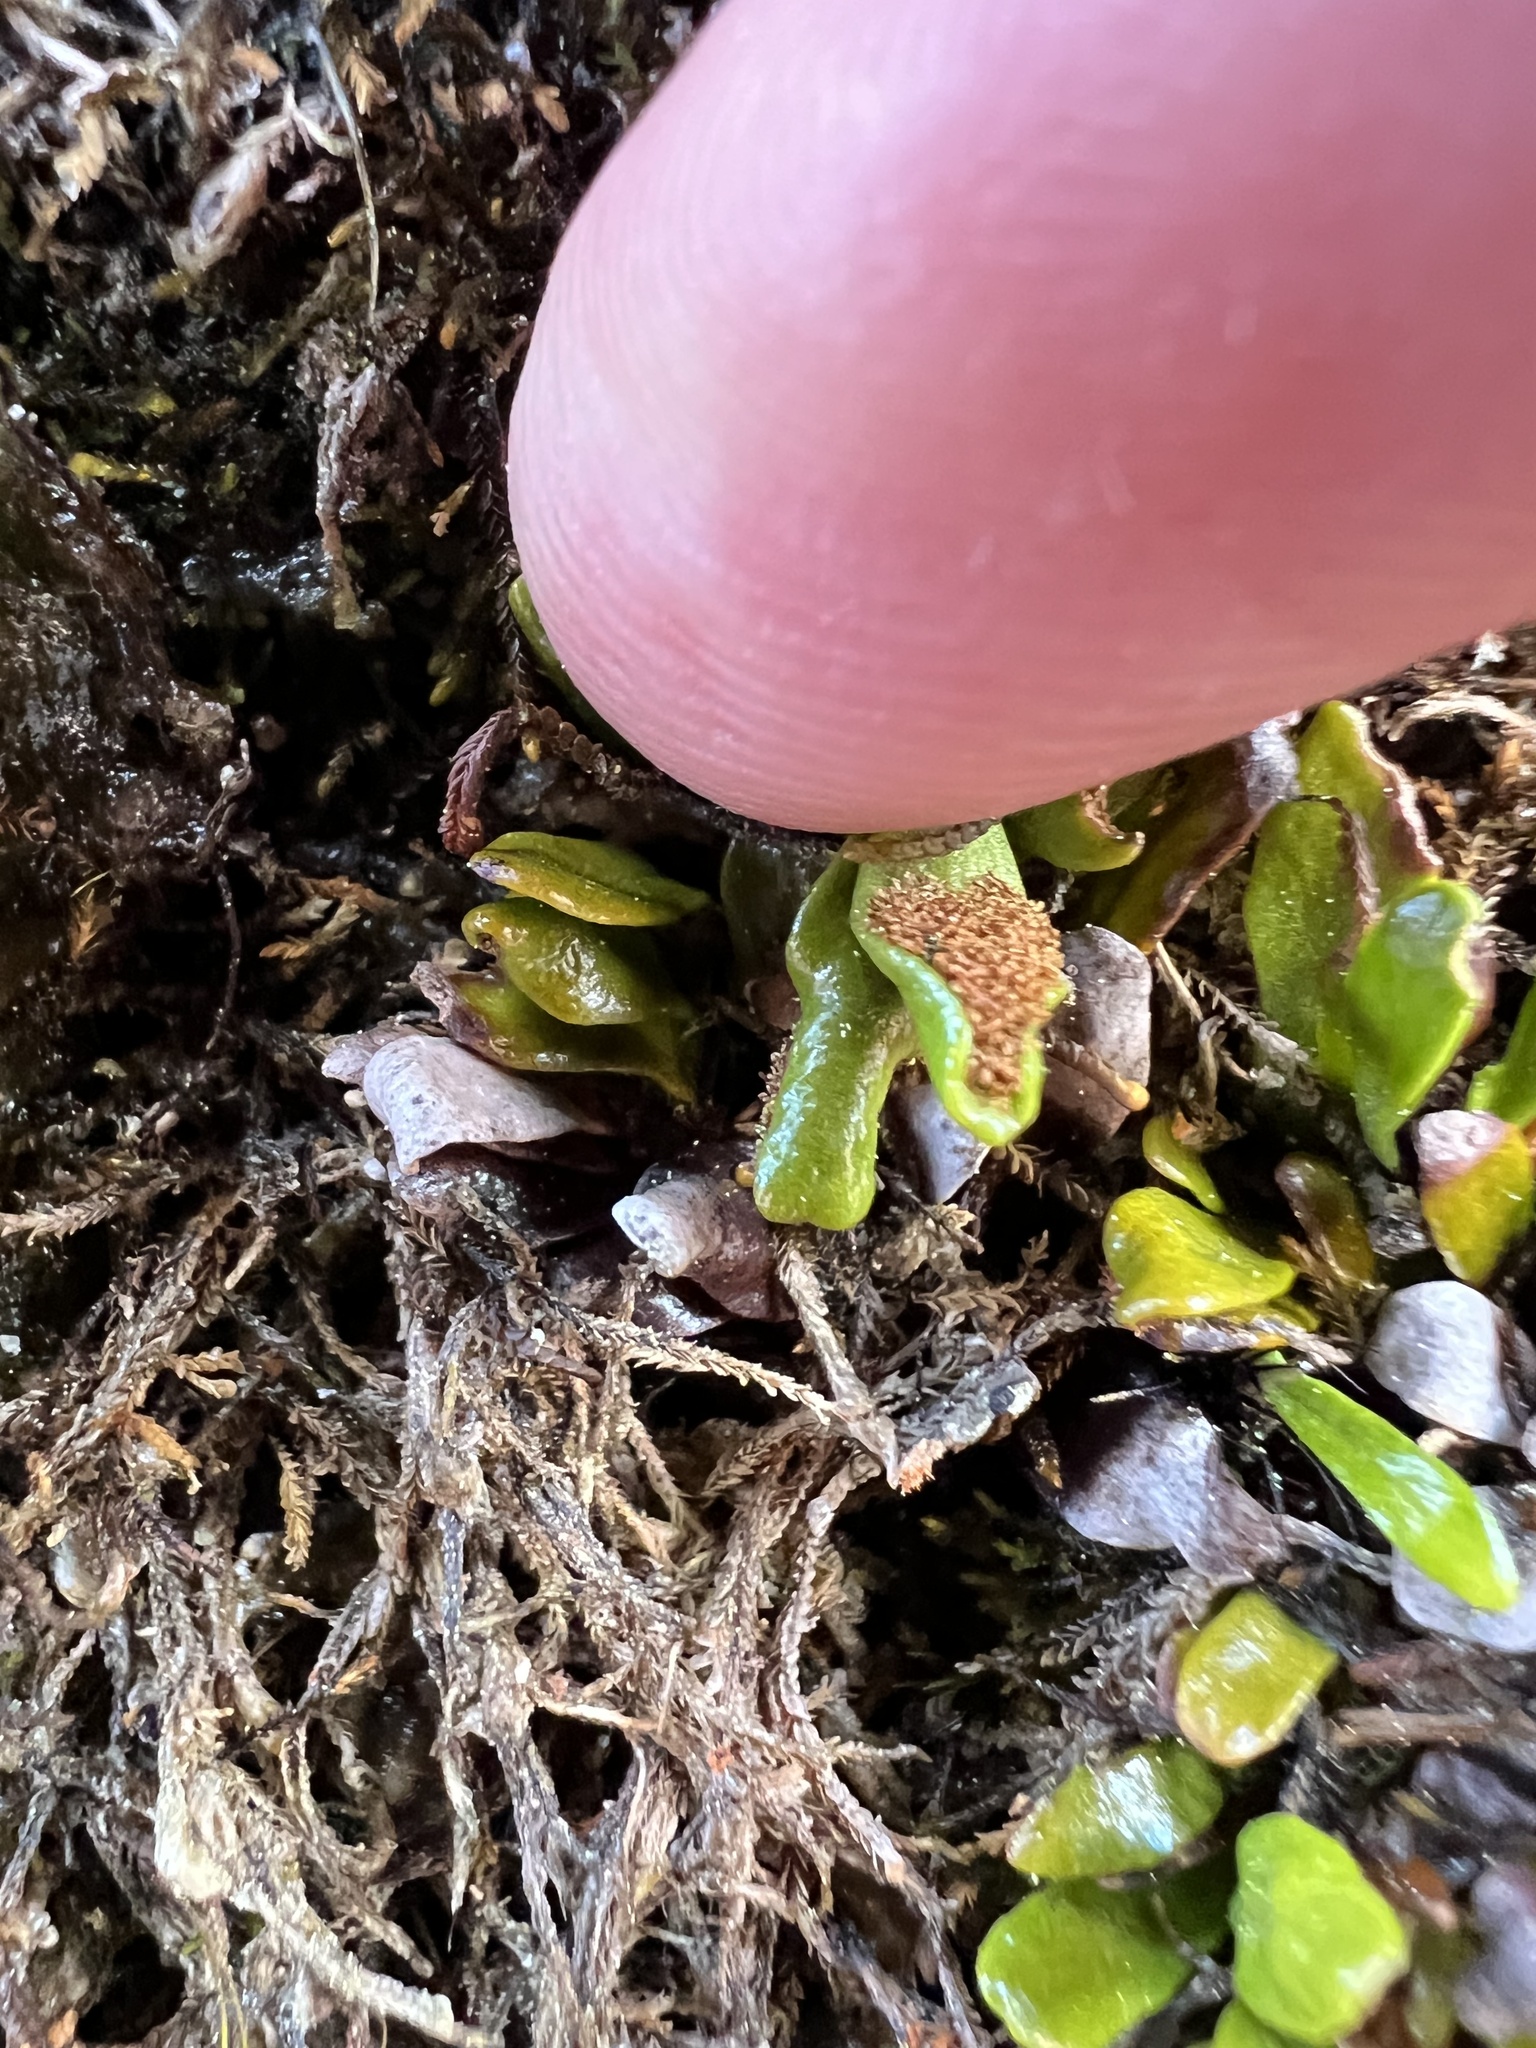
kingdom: Plantae
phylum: Tracheophyta
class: Polypodiopsida
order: Polypodiales
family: Polypodiaceae
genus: Notogrammitis
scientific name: Notogrammitis crassior
